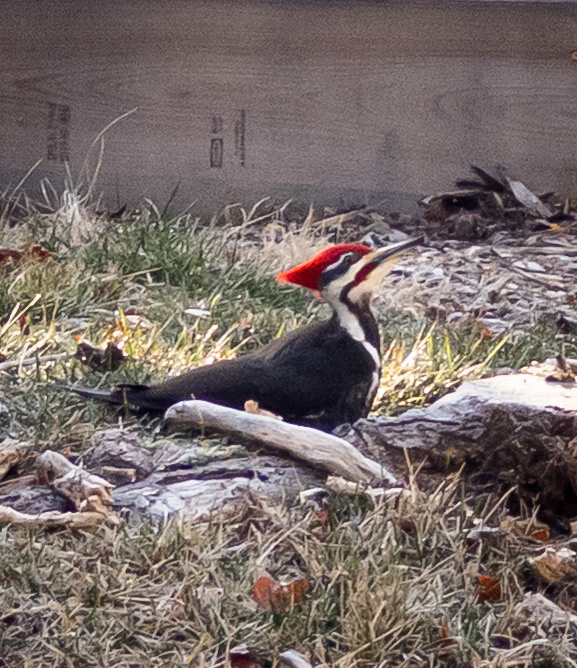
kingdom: Animalia
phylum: Chordata
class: Aves
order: Piciformes
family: Picidae
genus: Dryocopus
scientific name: Dryocopus pileatus
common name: Pileated woodpecker
